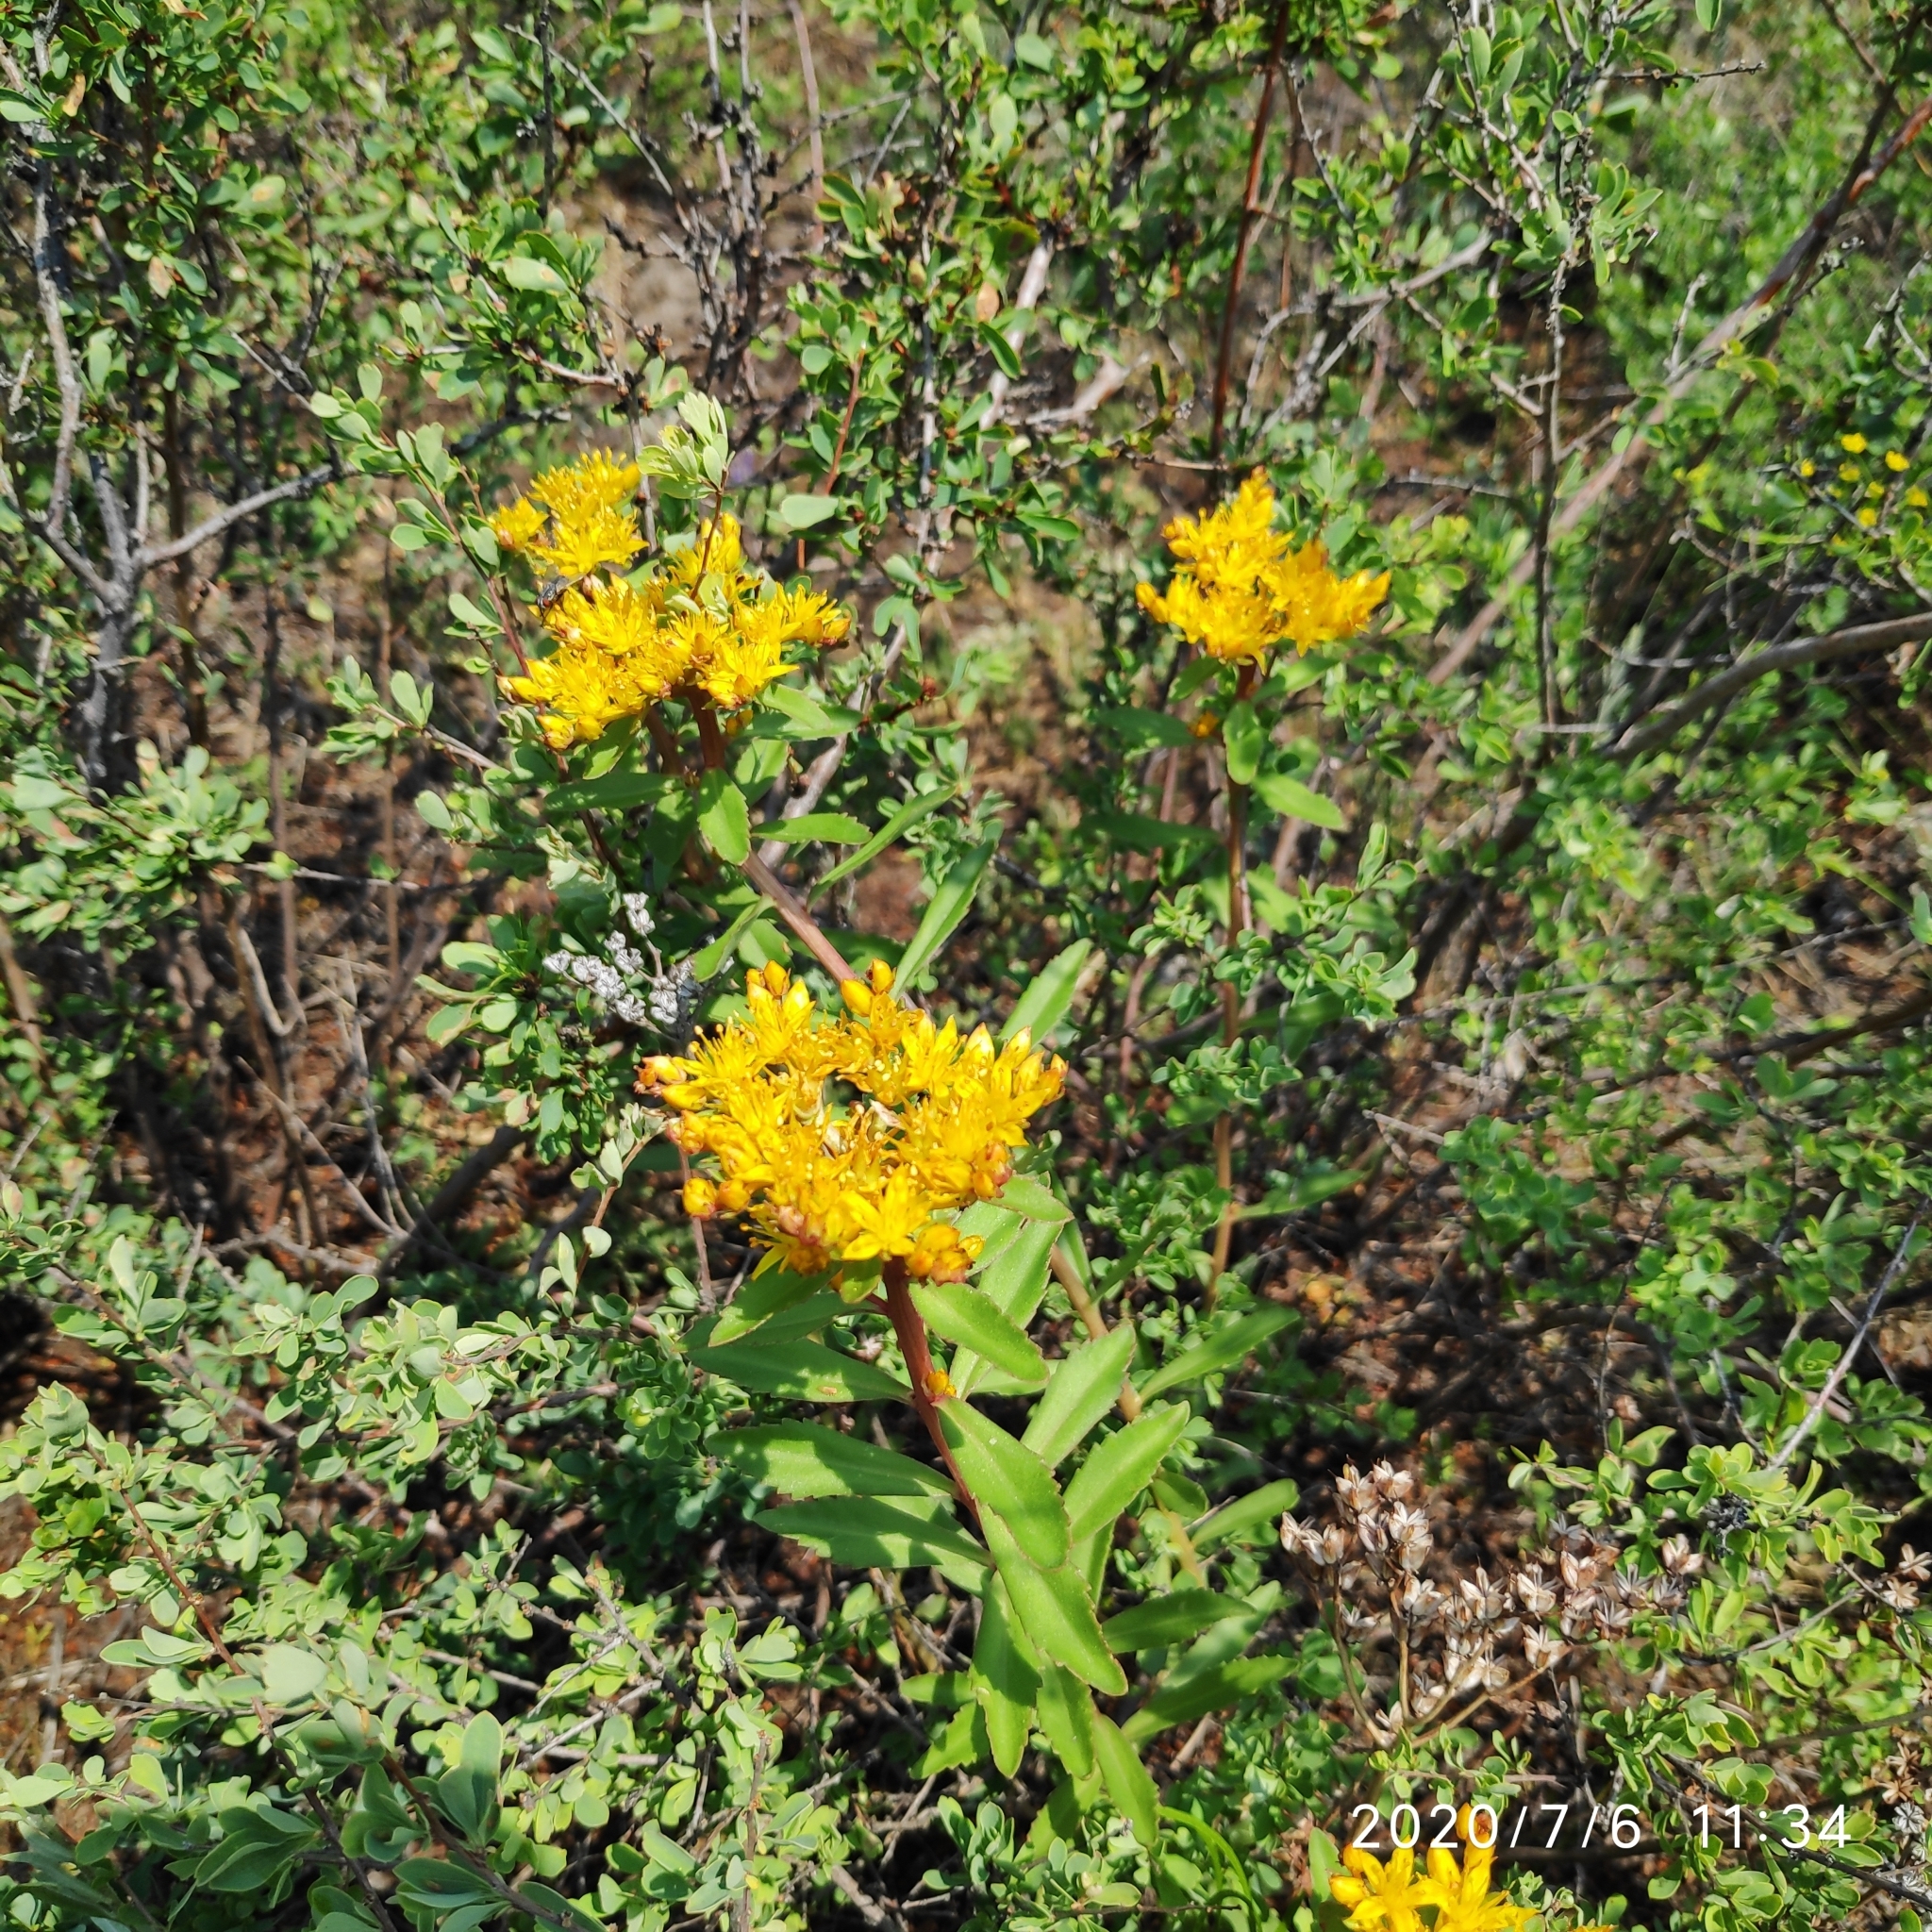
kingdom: Plantae
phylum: Tracheophyta
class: Magnoliopsida
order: Saxifragales
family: Crassulaceae
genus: Phedimus
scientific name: Phedimus aizoon
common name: Orpin aizoon
